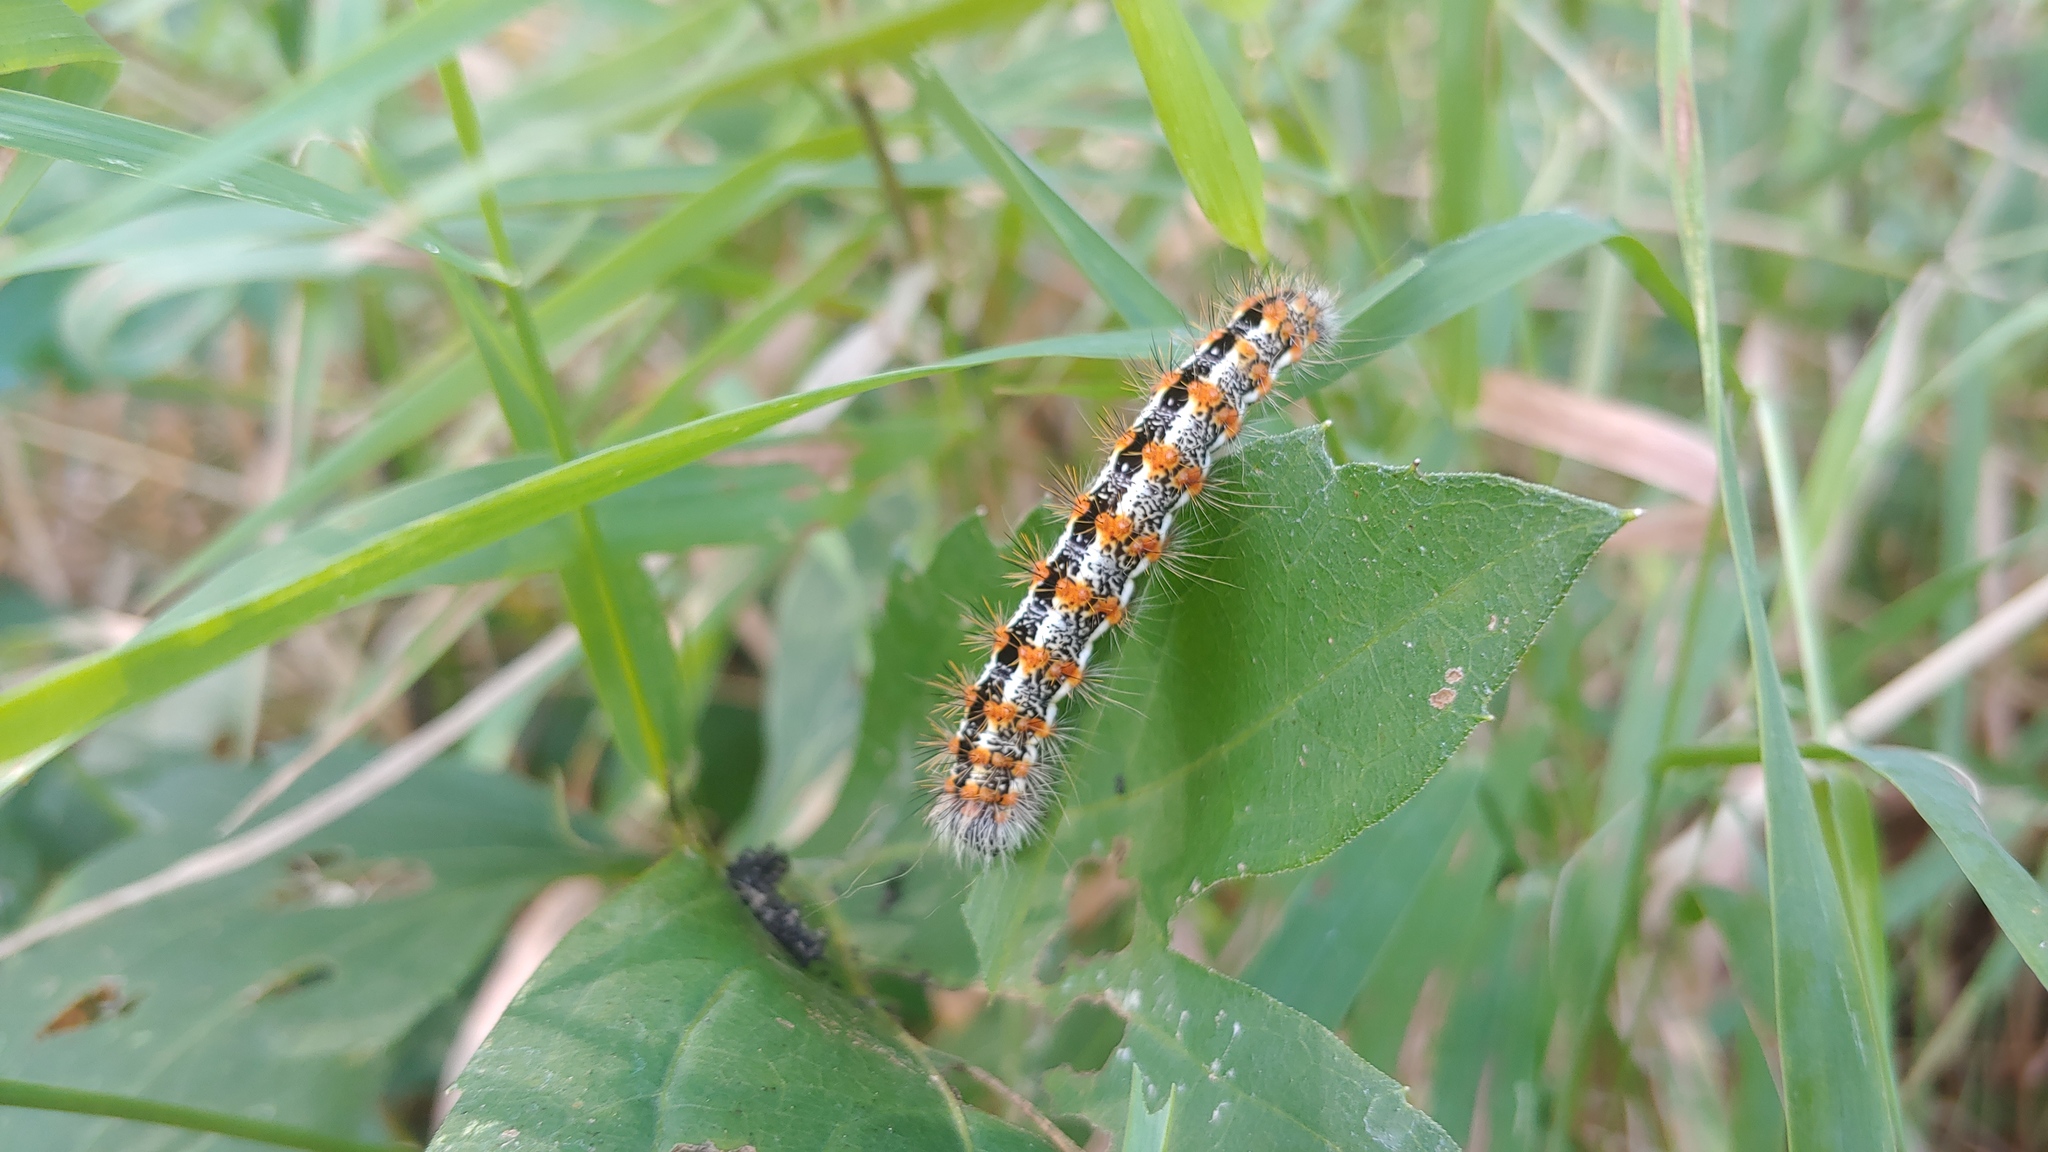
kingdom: Animalia
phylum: Arthropoda
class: Insecta
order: Lepidoptera
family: Noctuidae
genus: Acronicta
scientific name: Acronicta insularis
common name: Henry's marsh moth
